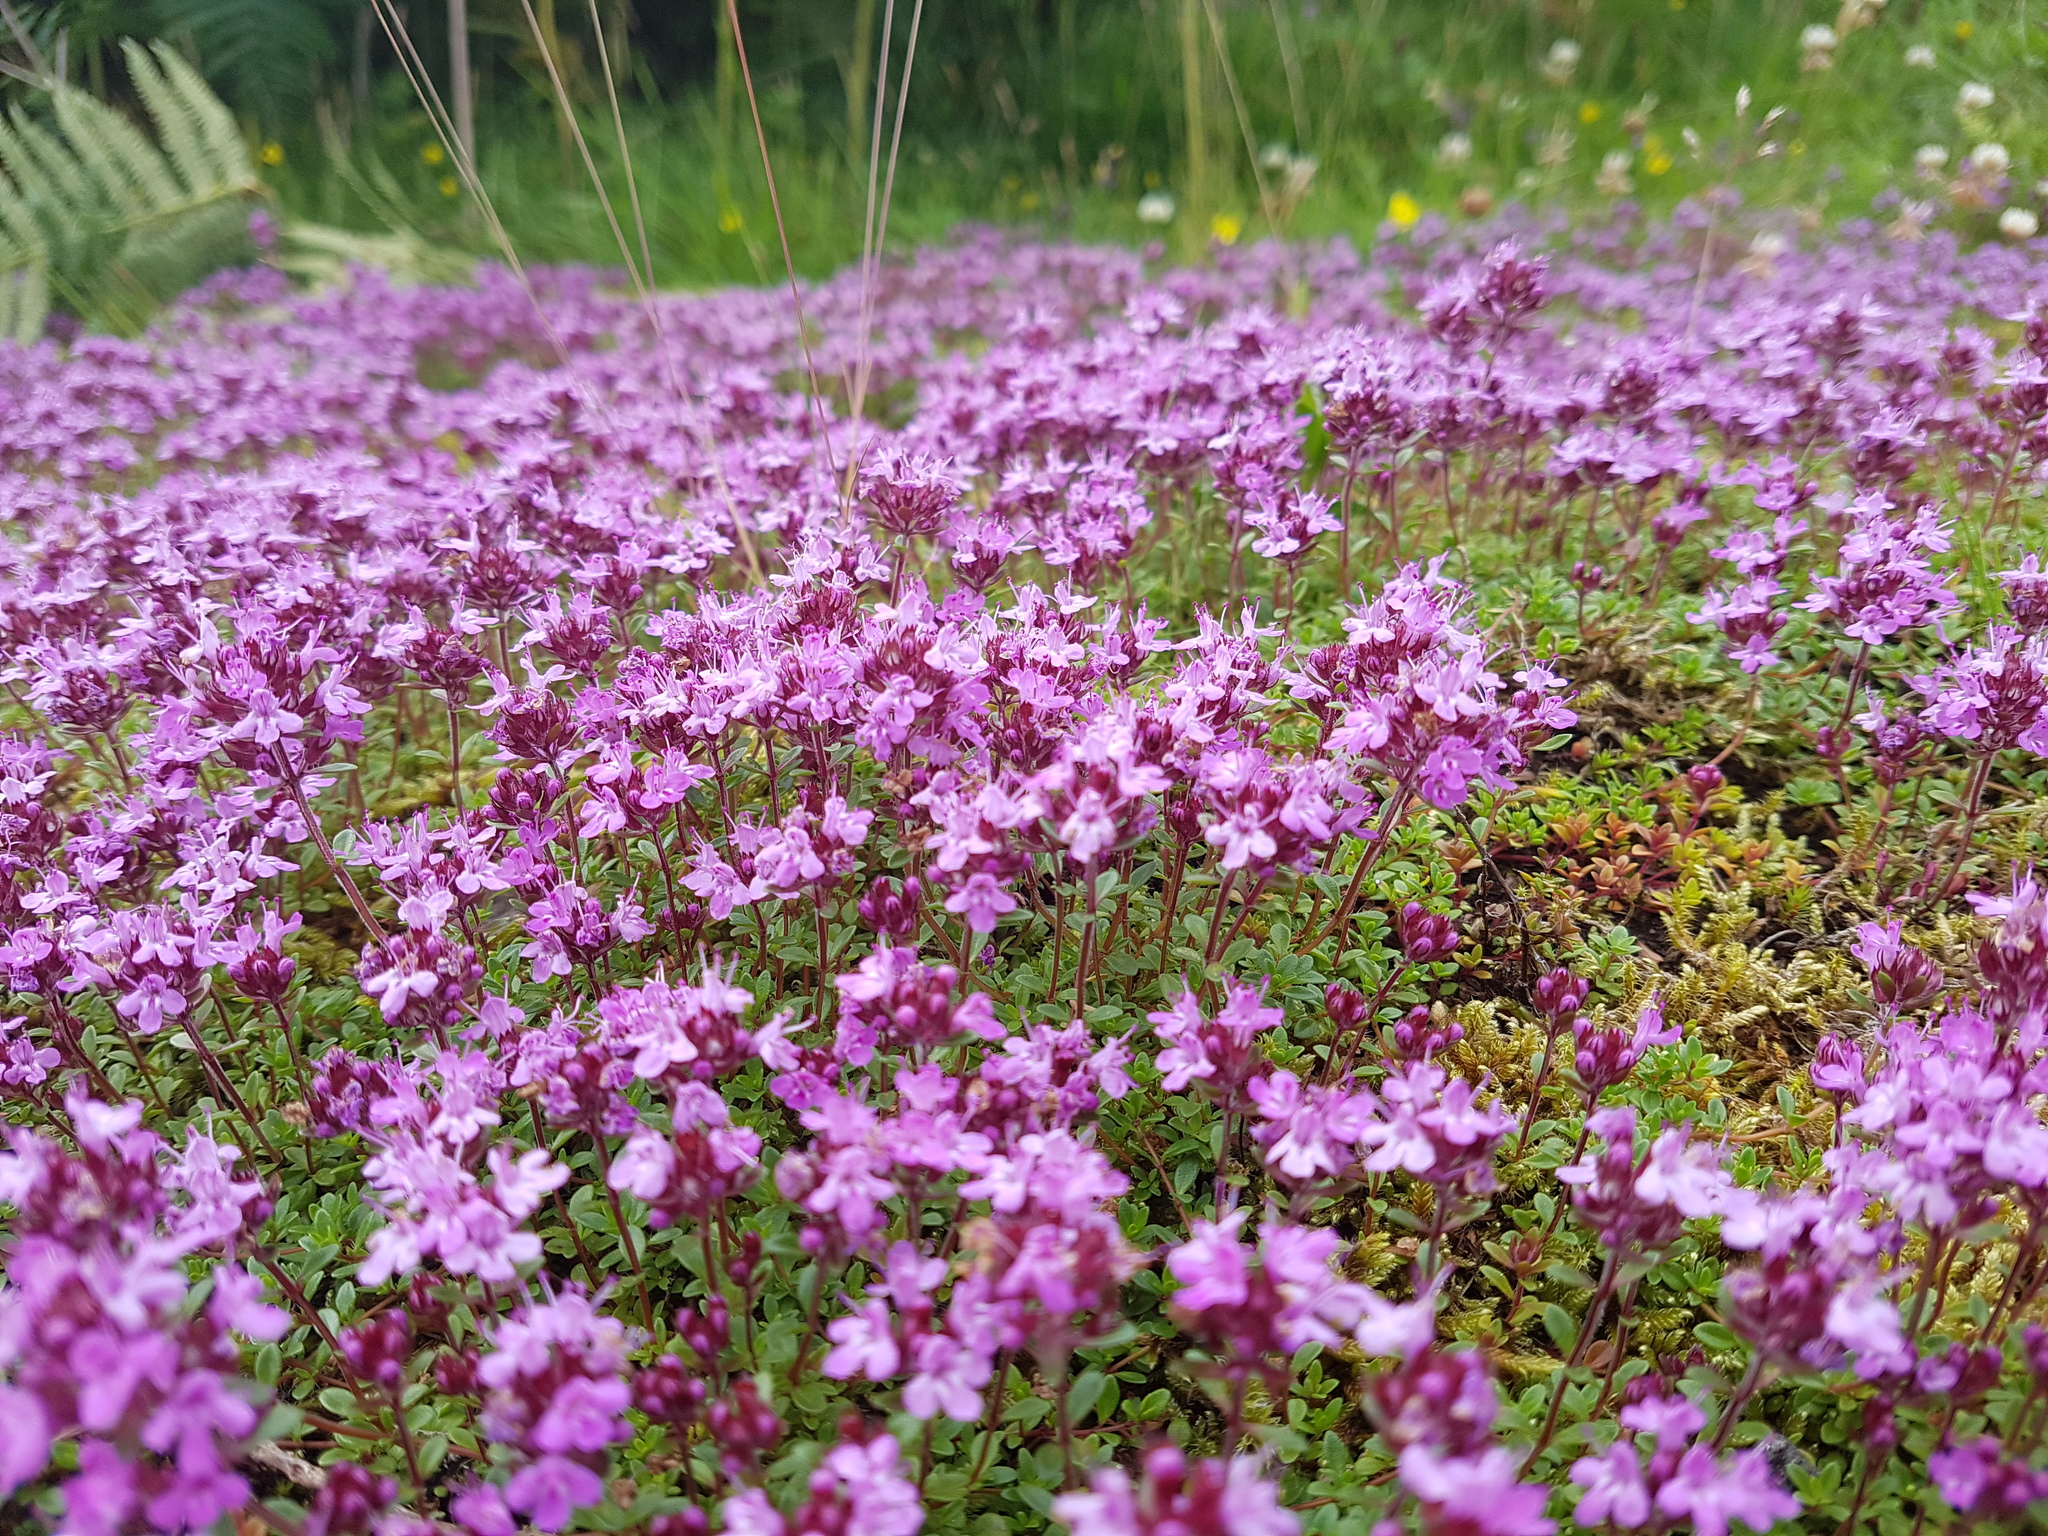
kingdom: Plantae
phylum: Tracheophyta
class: Magnoliopsida
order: Lamiales
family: Lamiaceae
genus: Thymus
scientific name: Thymus praecox
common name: Wild thyme
